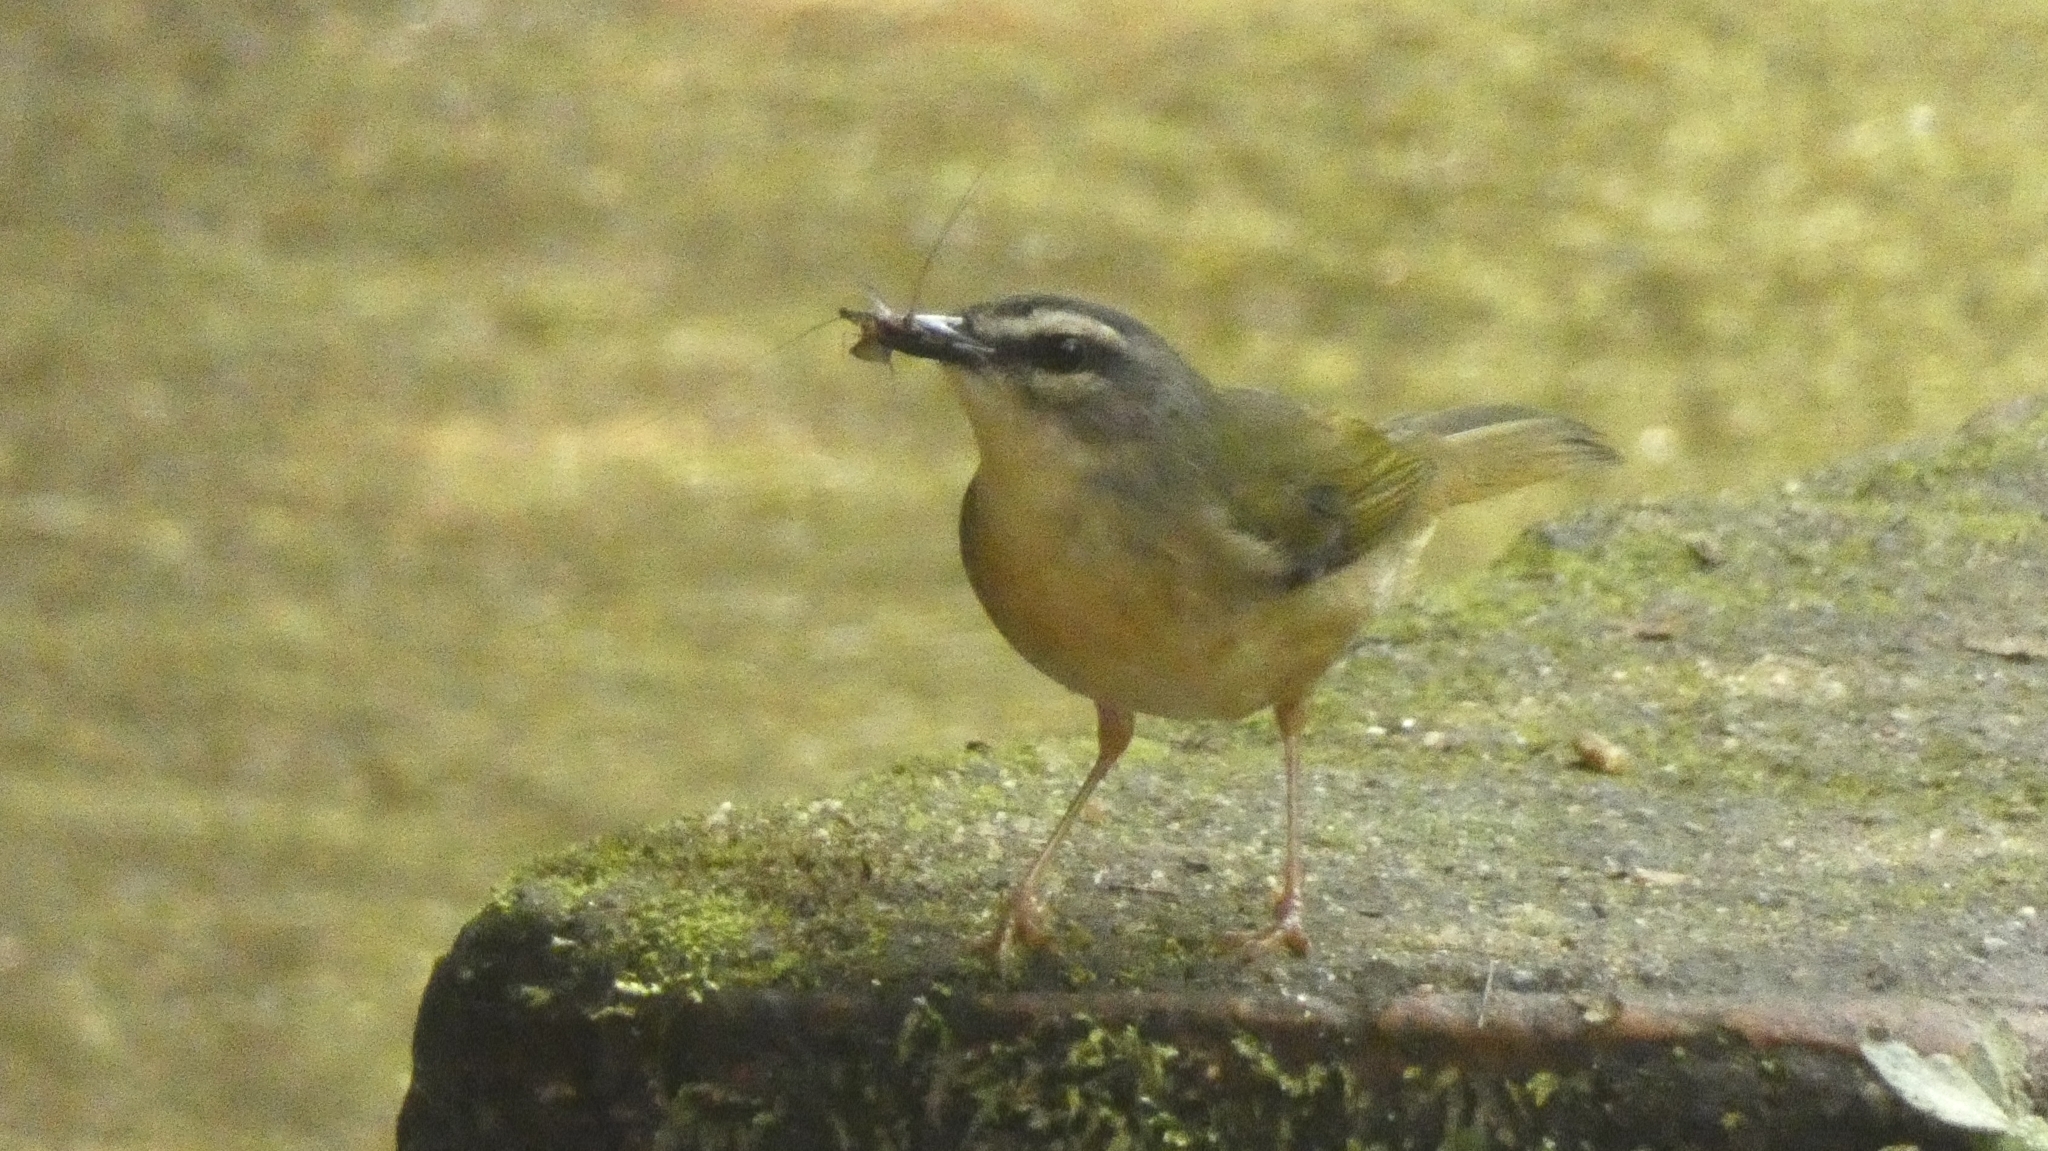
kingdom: Animalia
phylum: Chordata
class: Aves
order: Passeriformes
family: Parulidae
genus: Myiothlypis
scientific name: Myiothlypis rivularis
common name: Riverbank warbler
